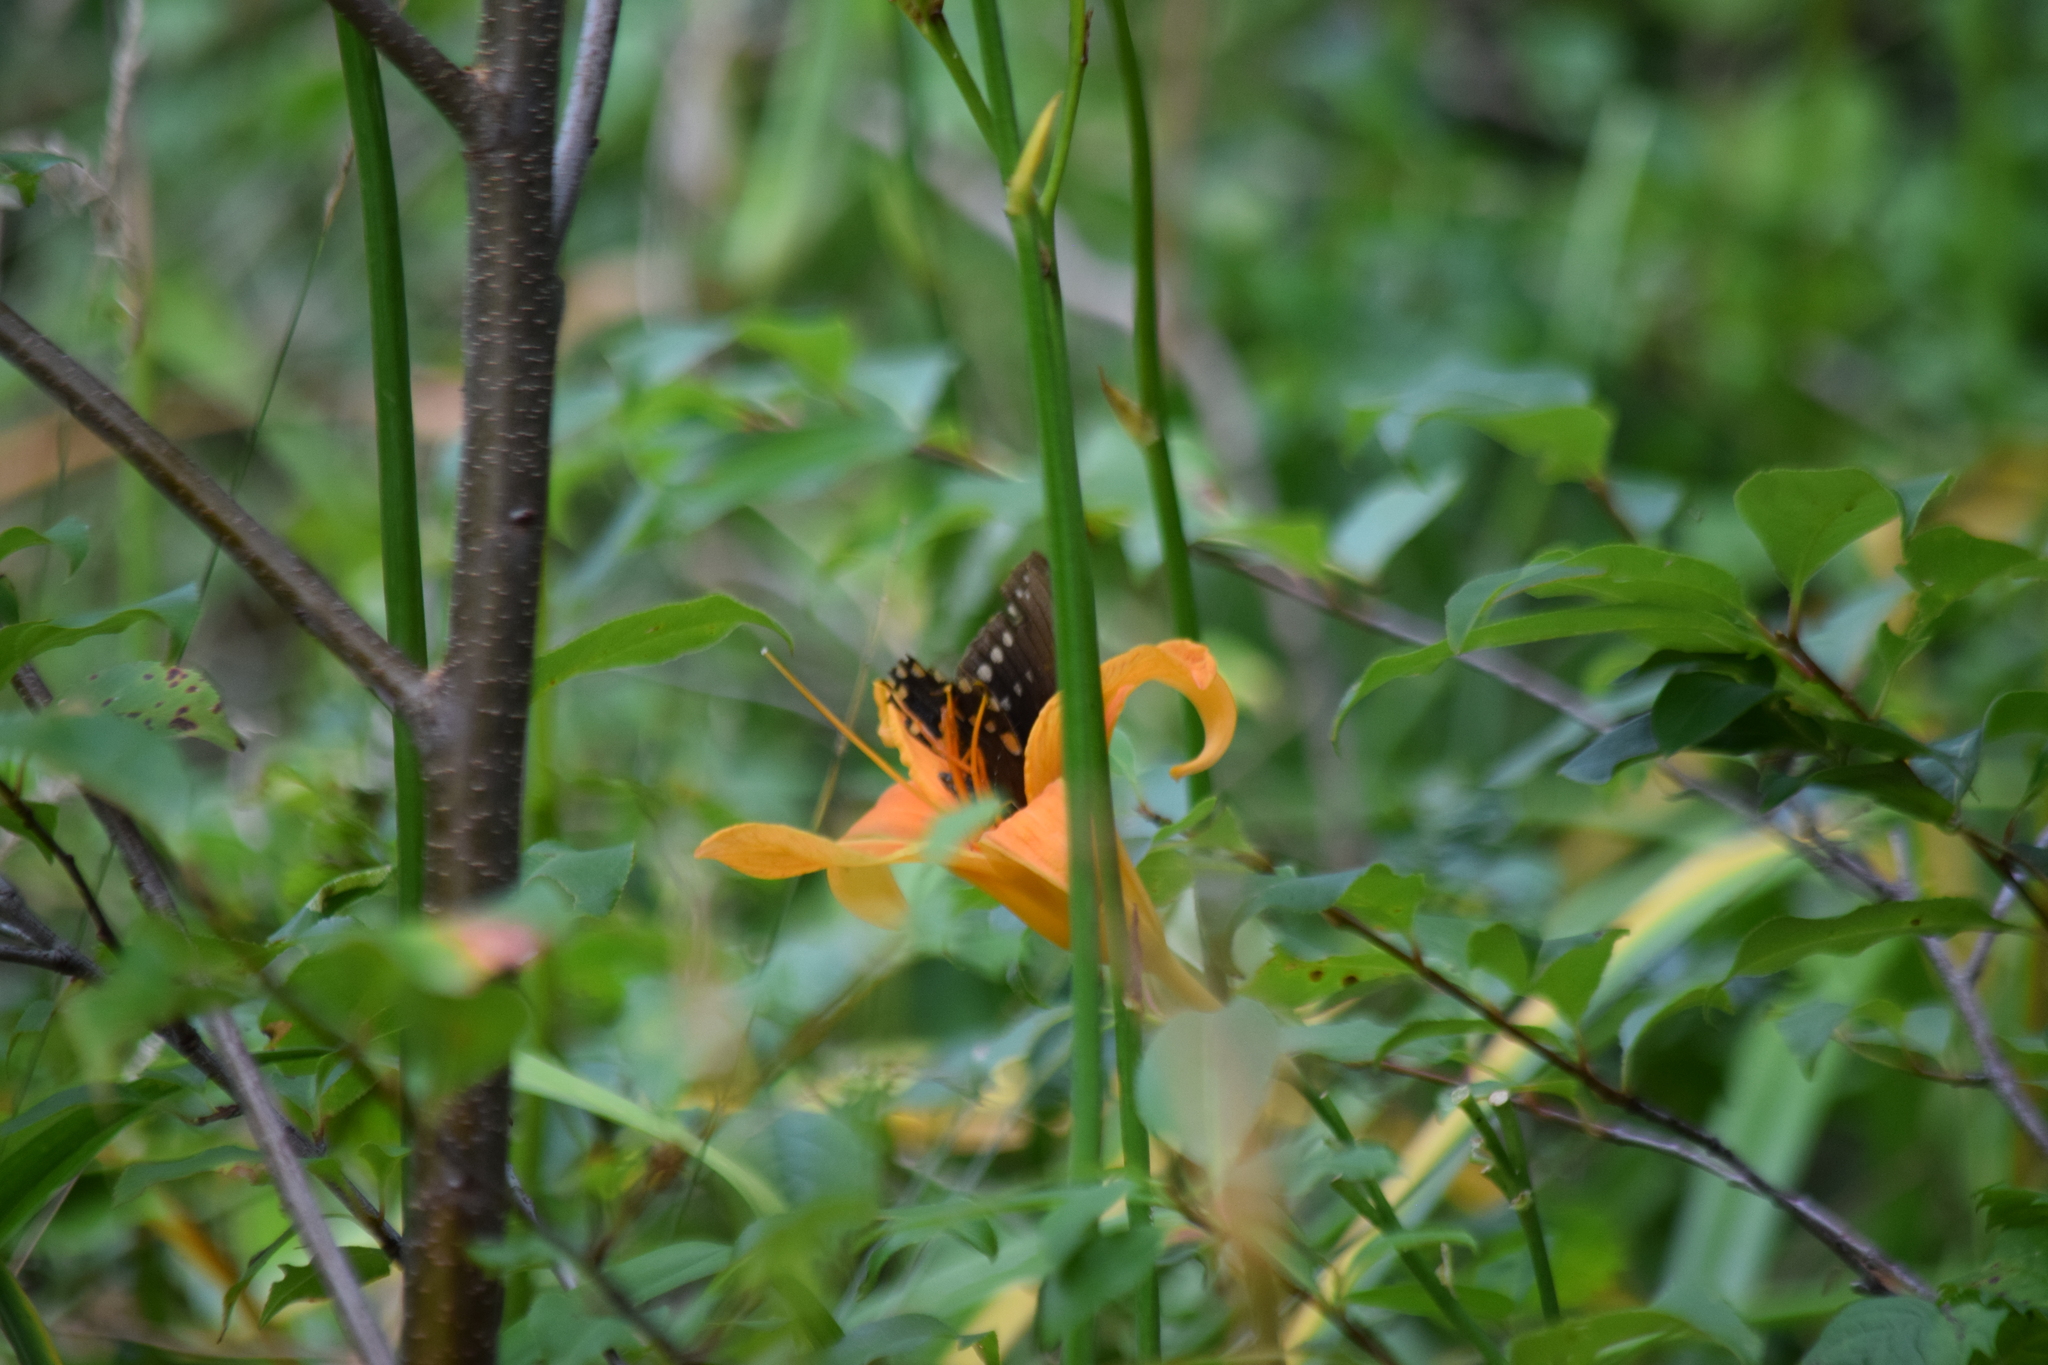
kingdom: Animalia
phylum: Arthropoda
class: Insecta
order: Lepidoptera
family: Papilionidae
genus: Papilio
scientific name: Papilio troilus
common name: Spicebush swallowtail
